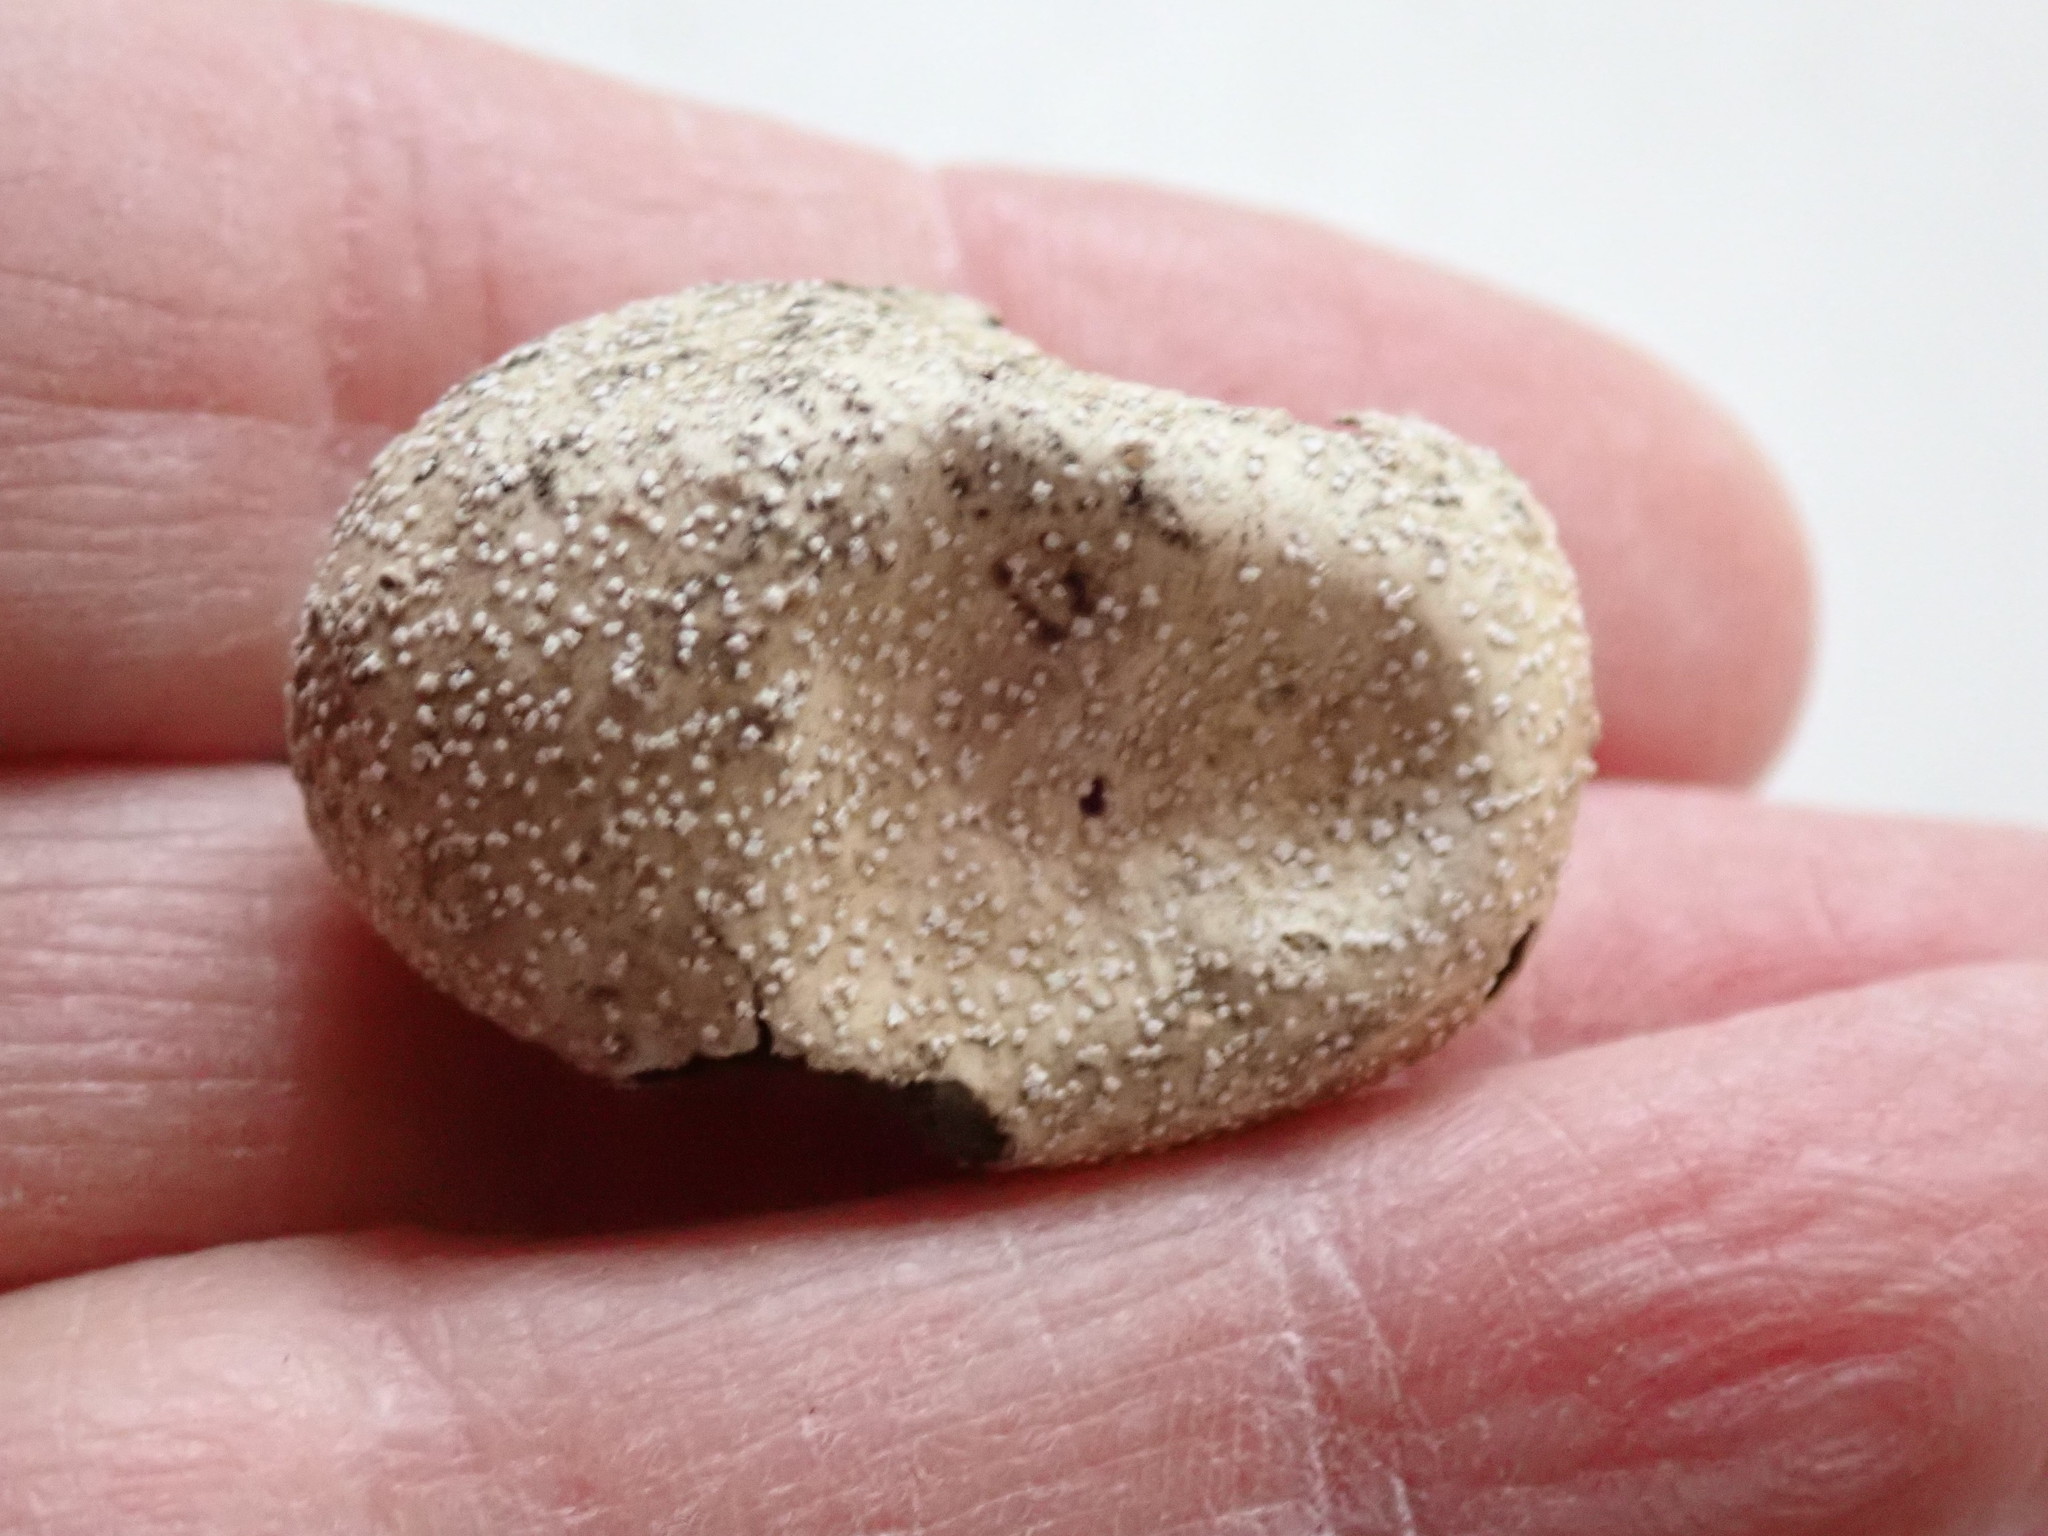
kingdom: Animalia
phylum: Chordata
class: Squamata
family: Colubridae
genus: Coluber
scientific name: Coluber constrictor
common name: Eastern racer
